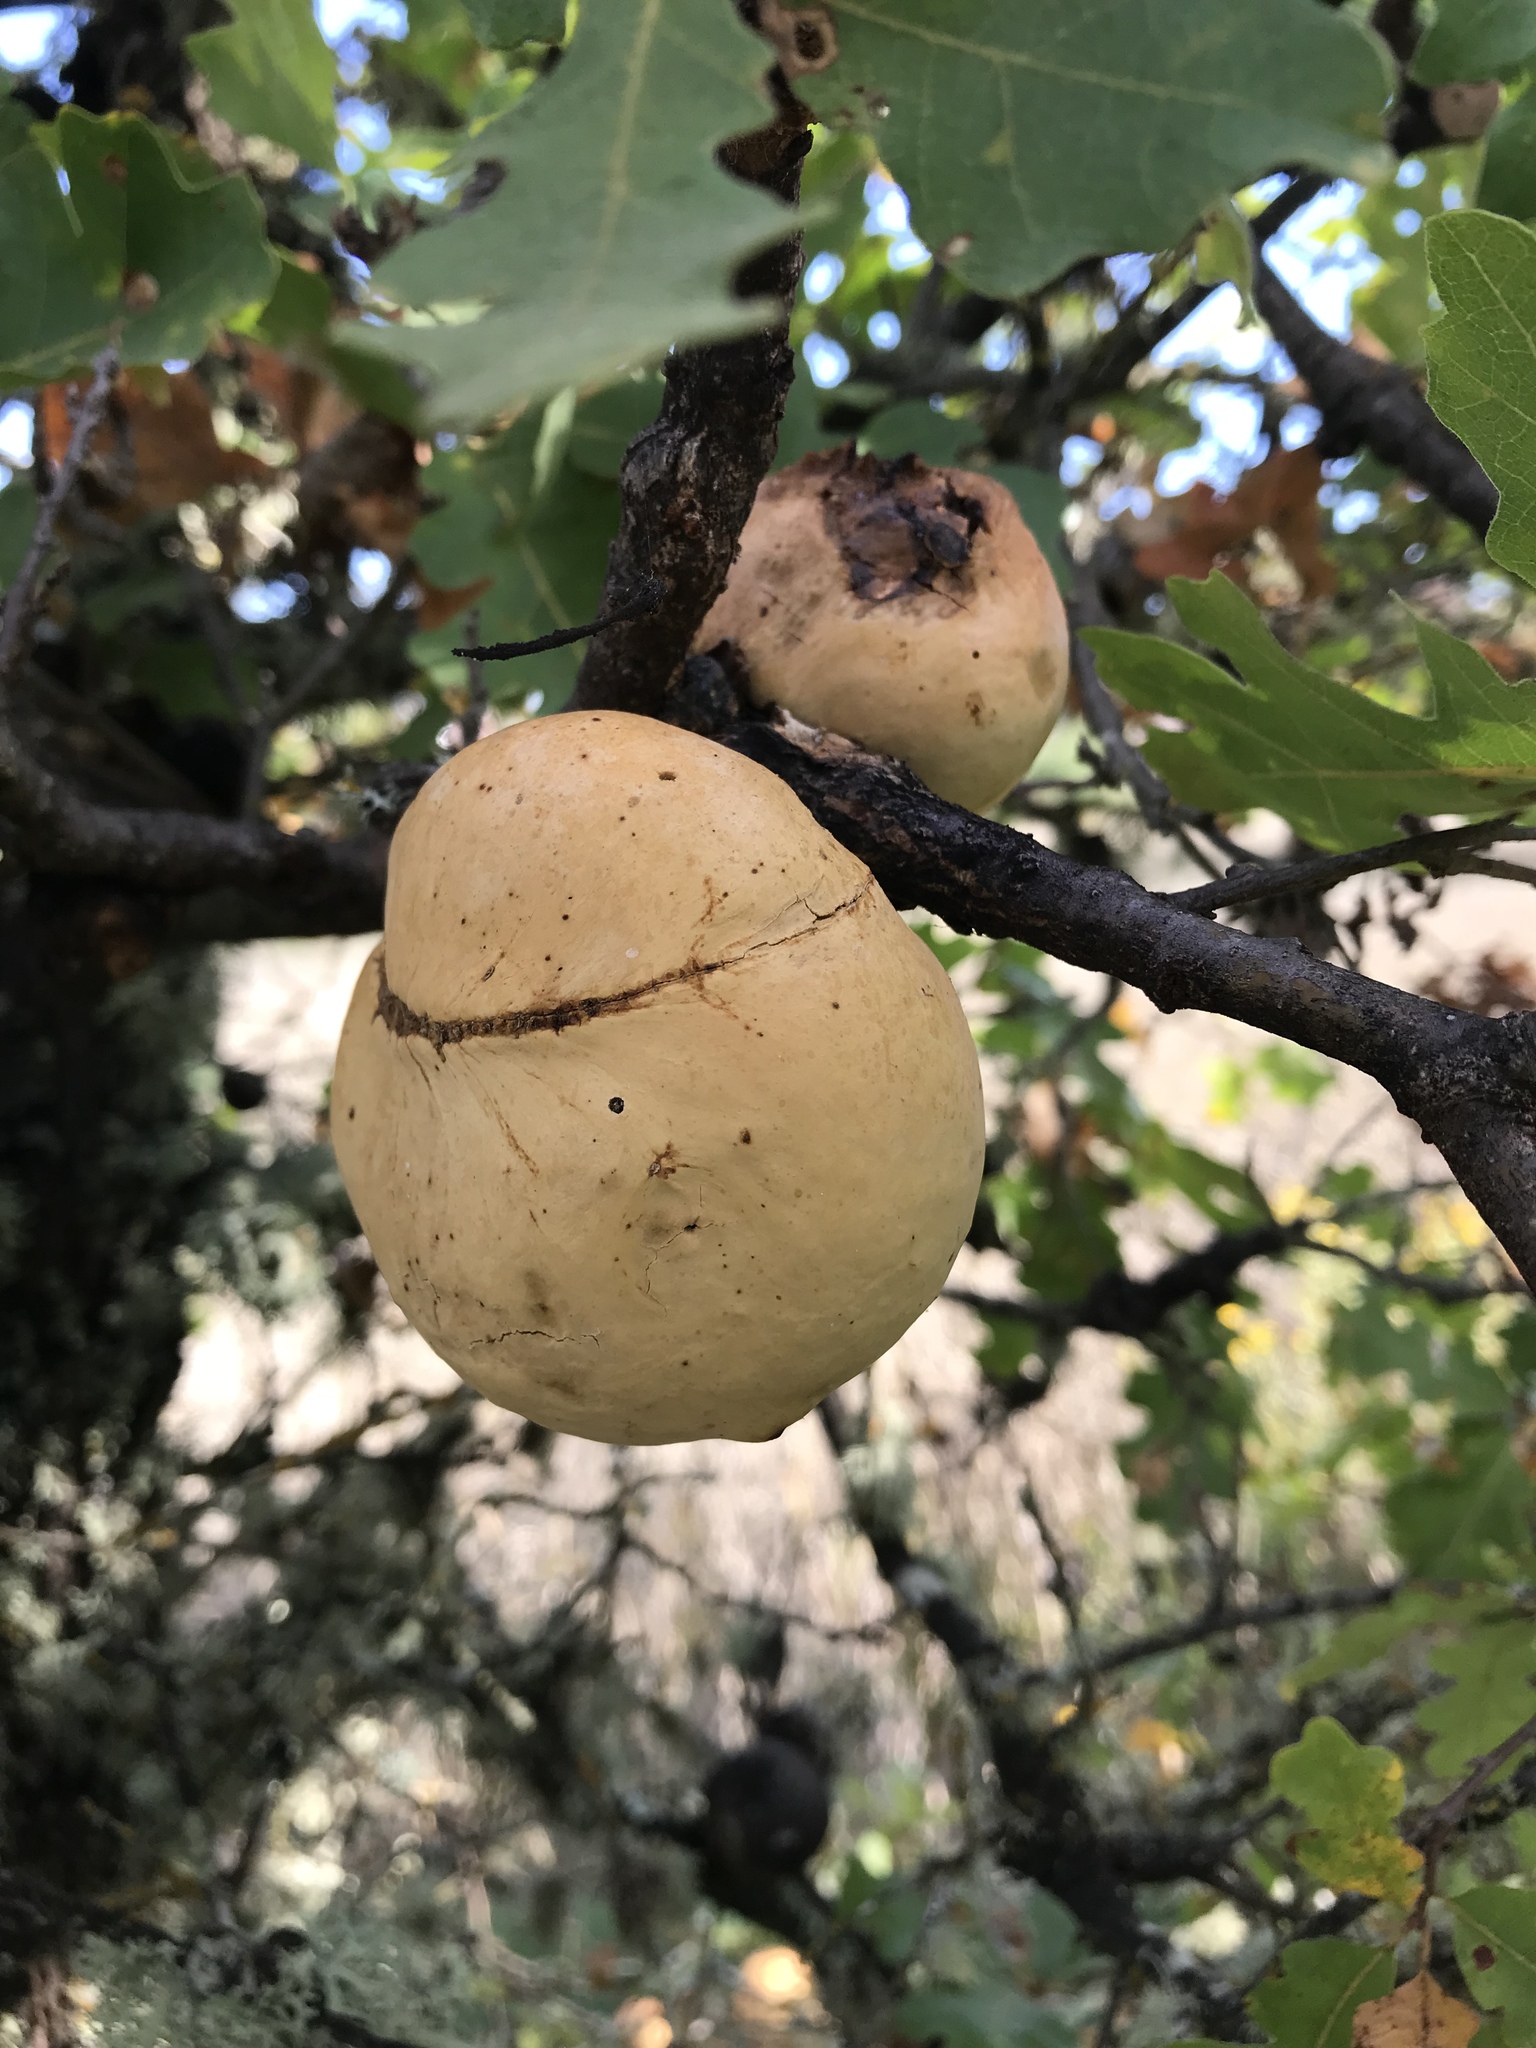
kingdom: Animalia
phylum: Arthropoda
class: Insecta
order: Hymenoptera
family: Cynipidae
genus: Andricus
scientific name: Andricus quercuscalifornicus
